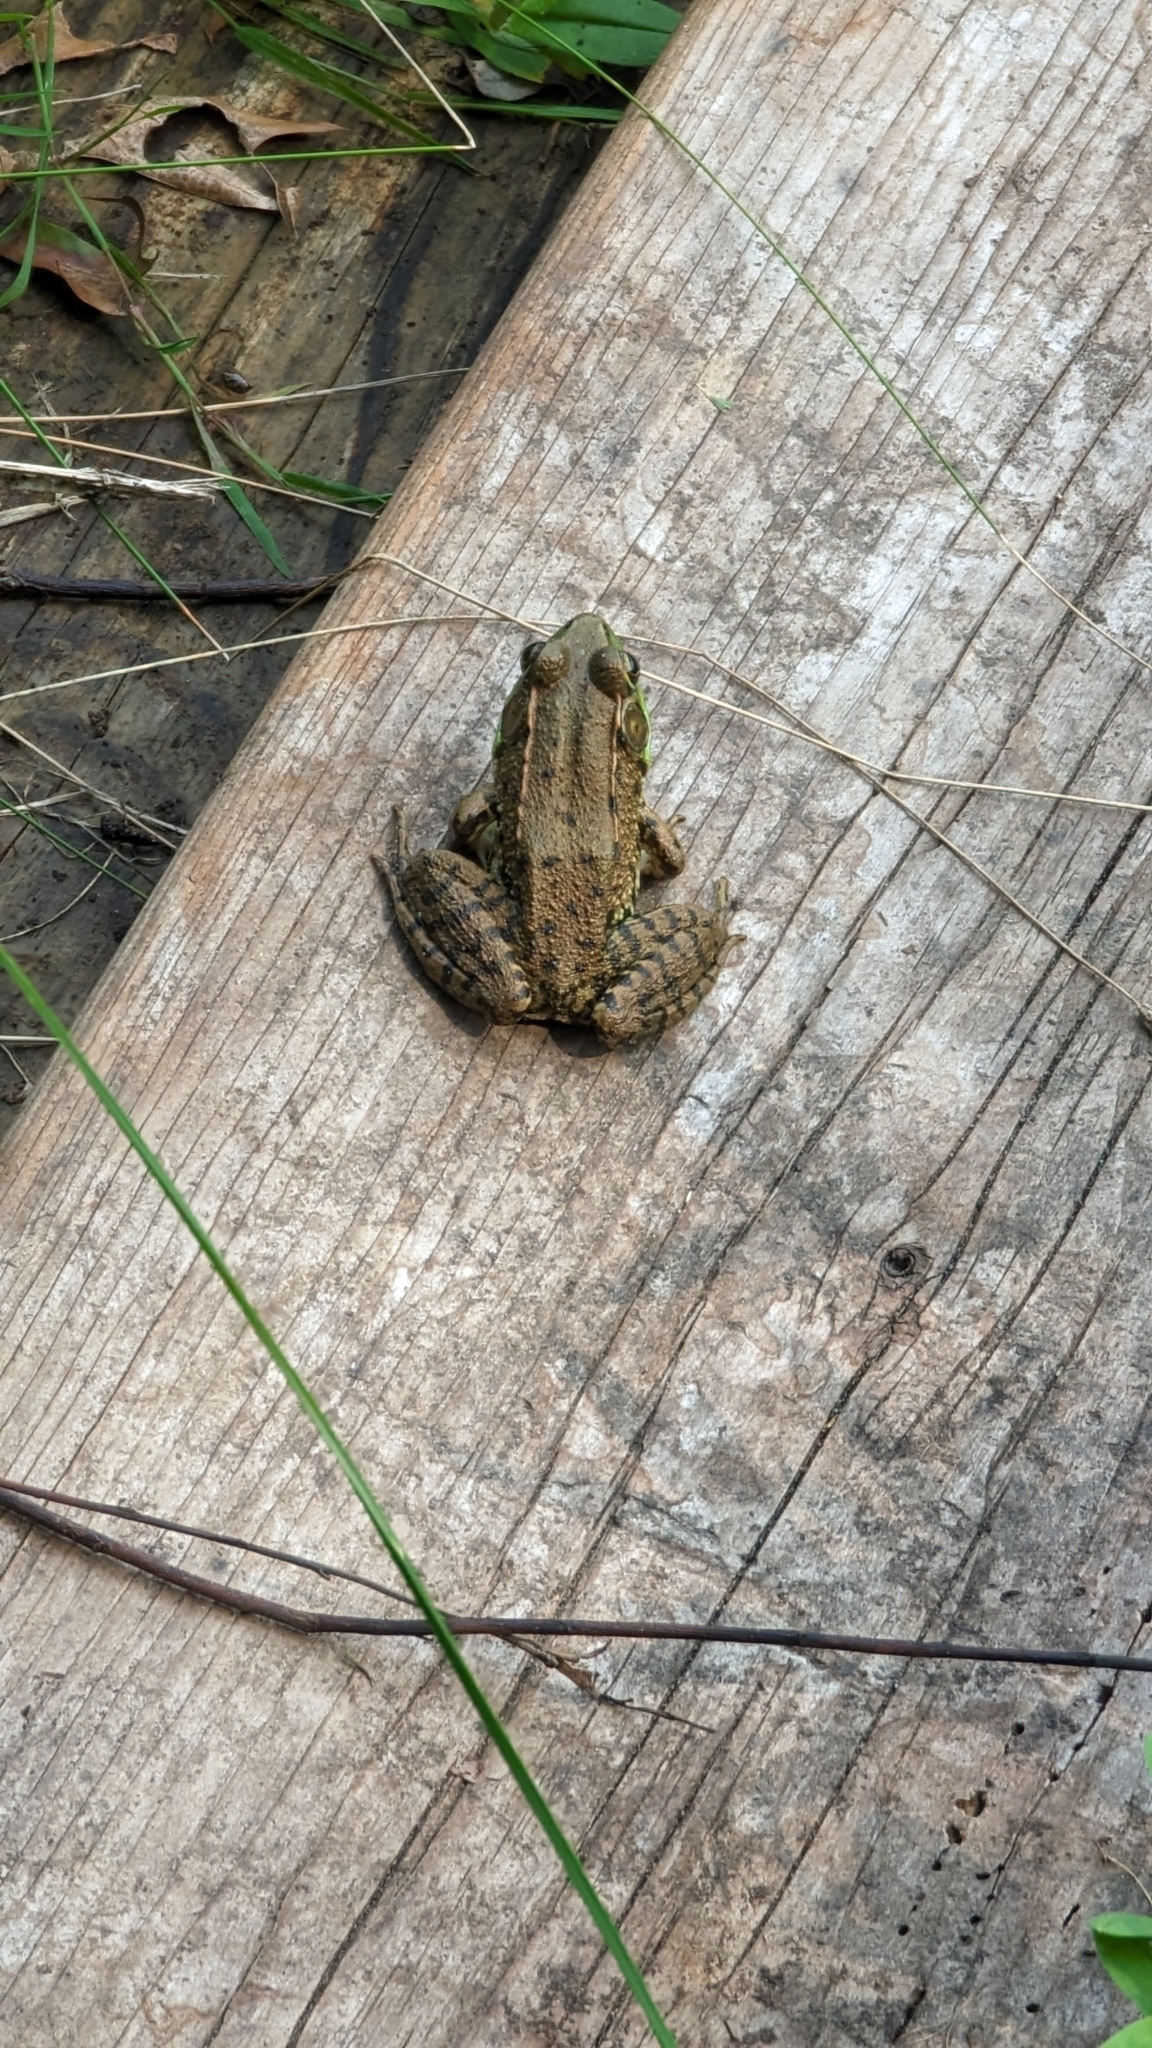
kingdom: Animalia
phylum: Chordata
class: Amphibia
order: Anura
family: Ranidae
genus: Lithobates
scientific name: Lithobates clamitans
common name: Green frog
